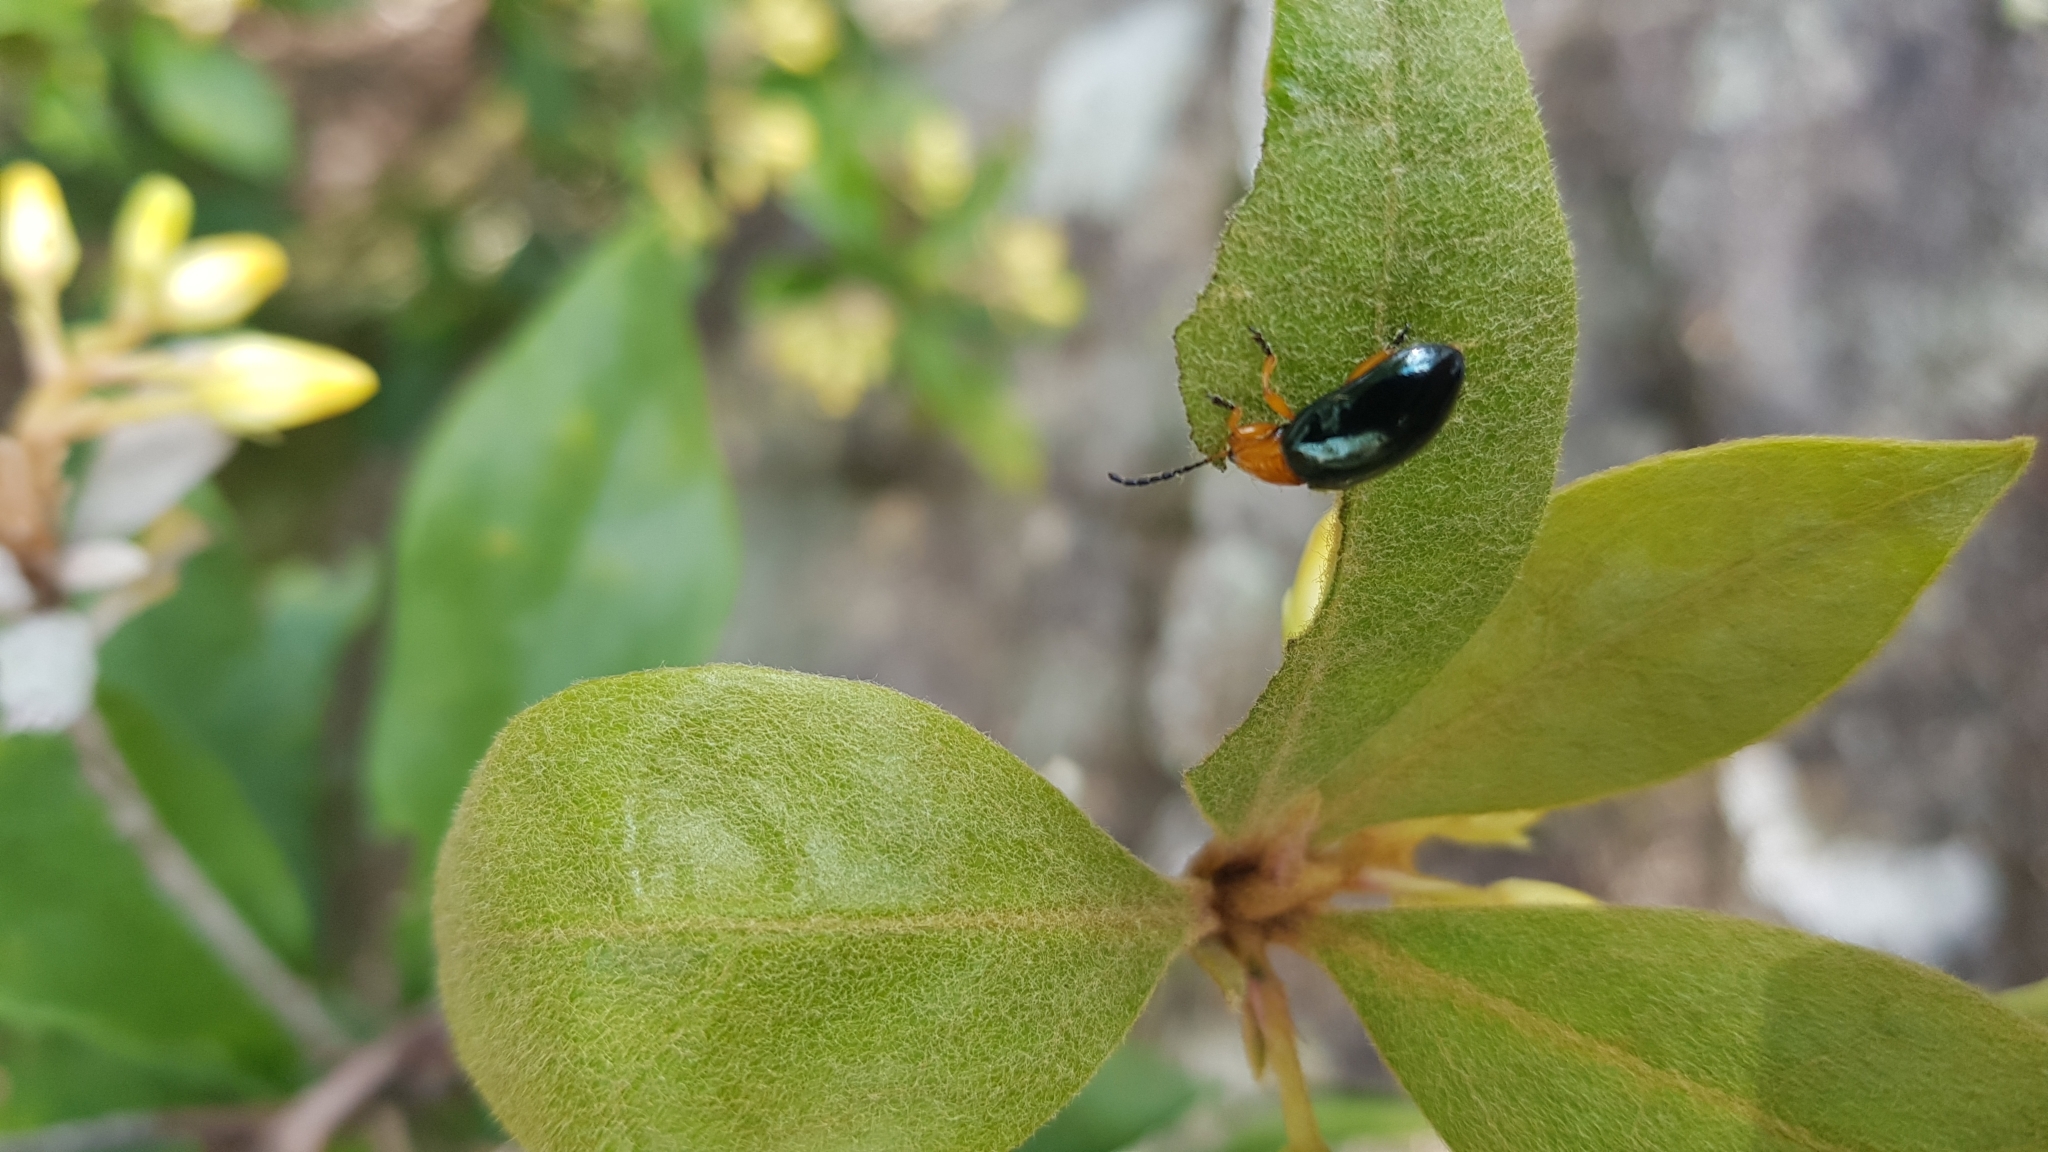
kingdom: Animalia
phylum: Arthropoda
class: Insecta
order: Coleoptera
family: Chrysomelidae
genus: Lamprolina
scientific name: Lamprolina
